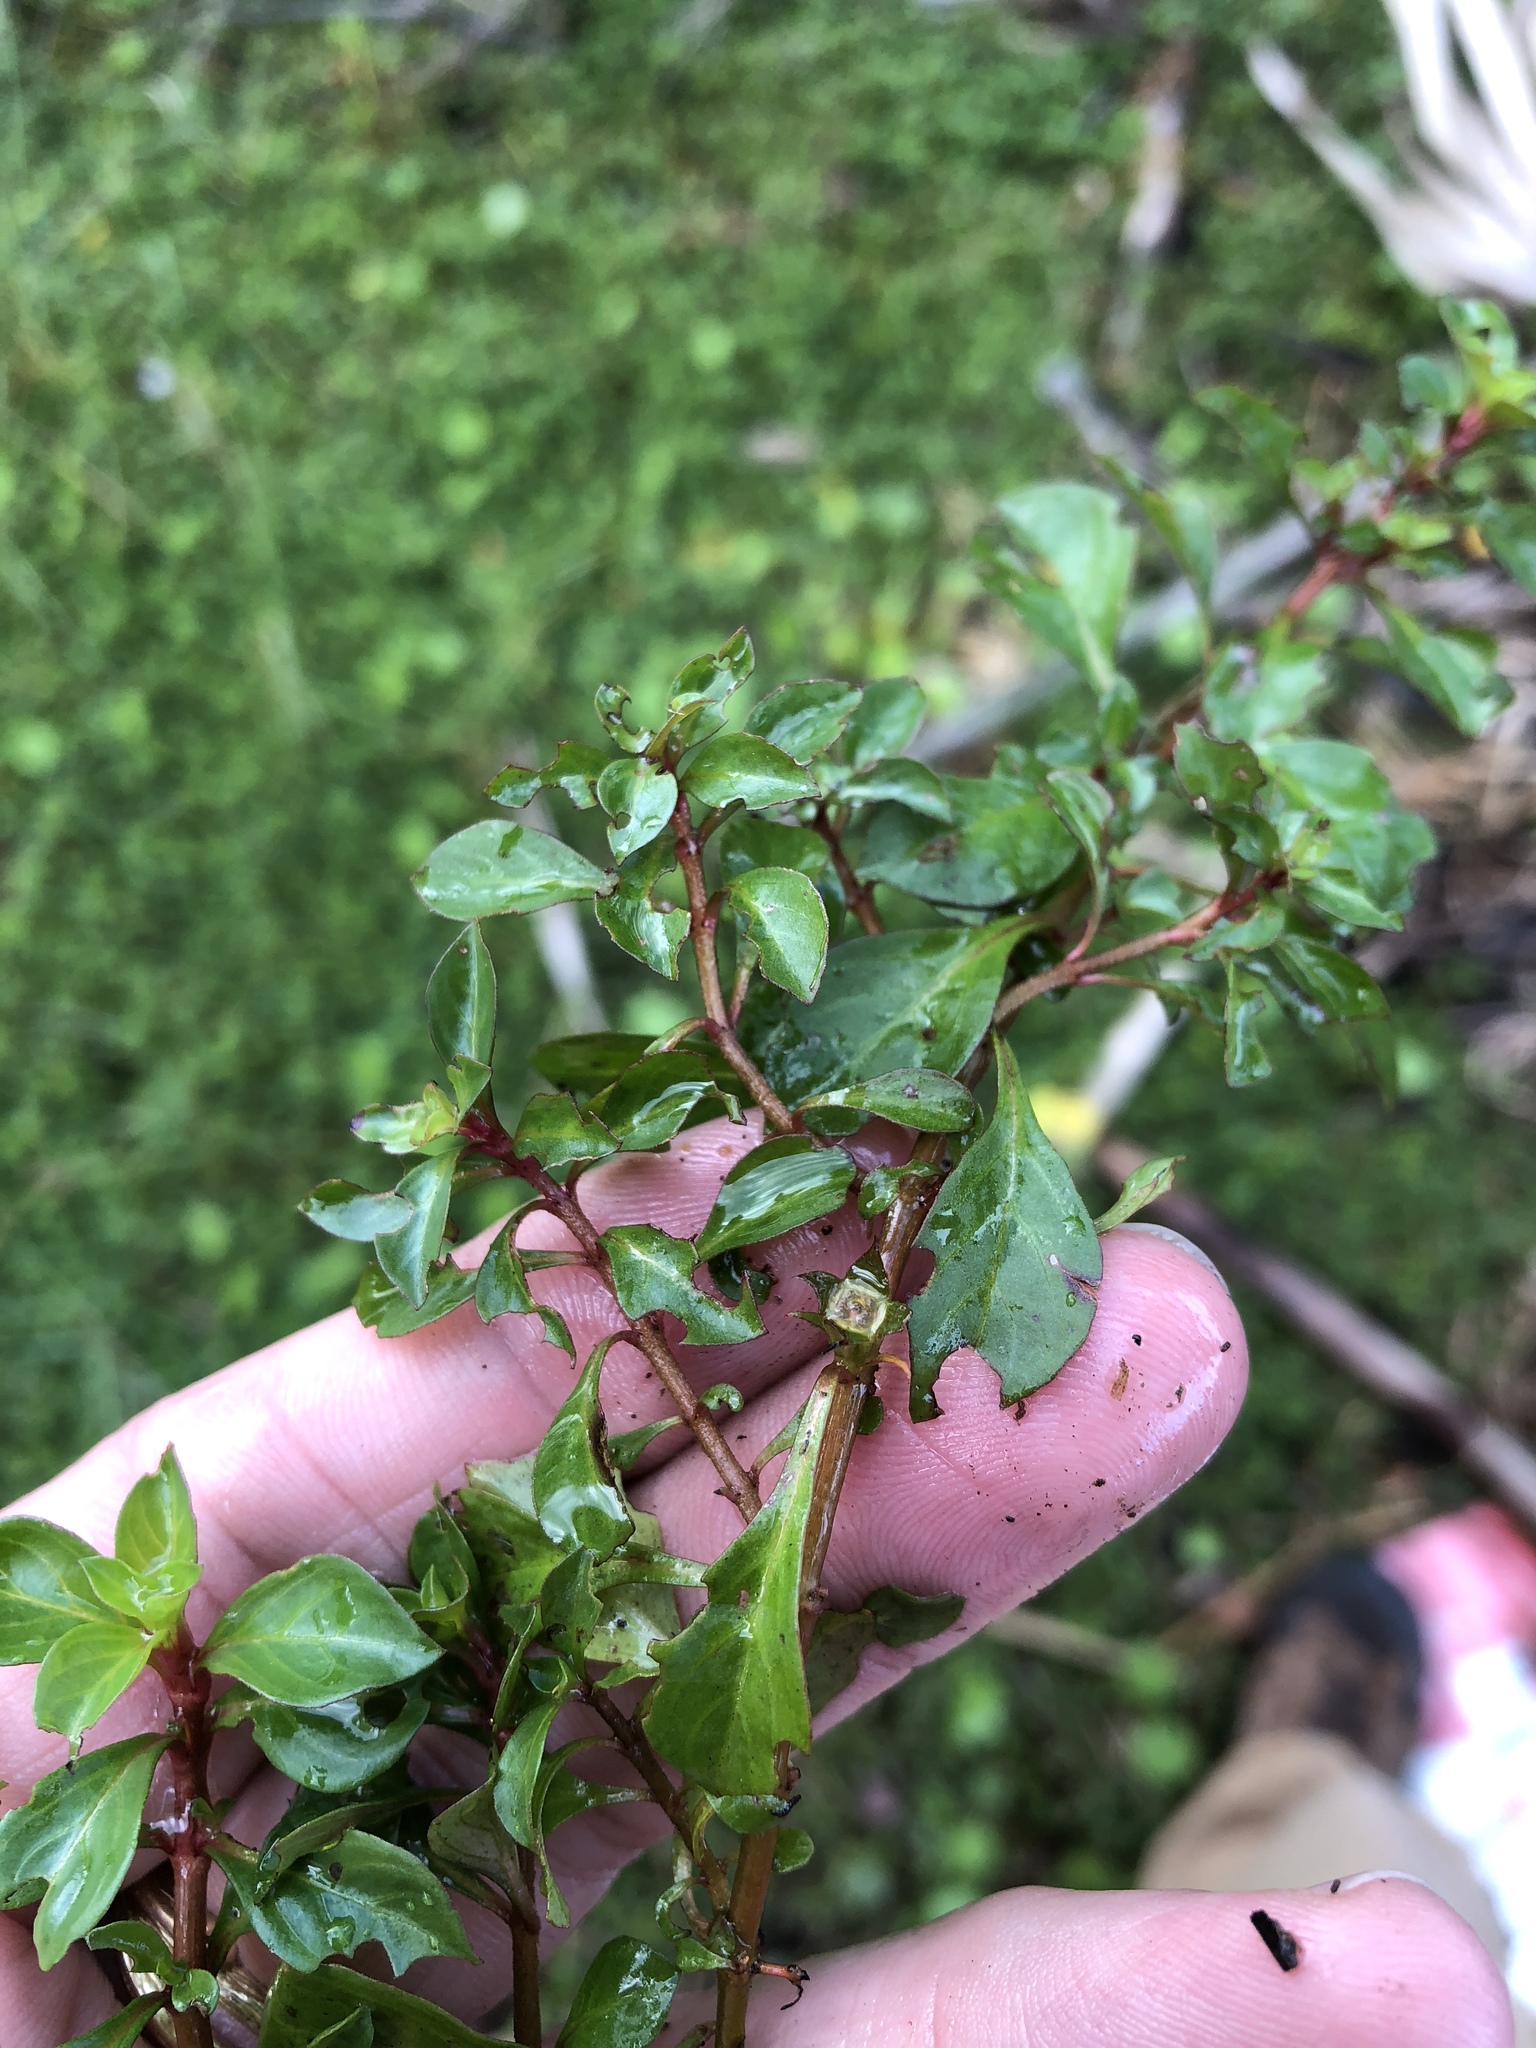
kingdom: Plantae
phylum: Tracheophyta
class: Magnoliopsida
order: Myrtales
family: Onagraceae
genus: Ludwigia
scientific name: Ludwigia repens
